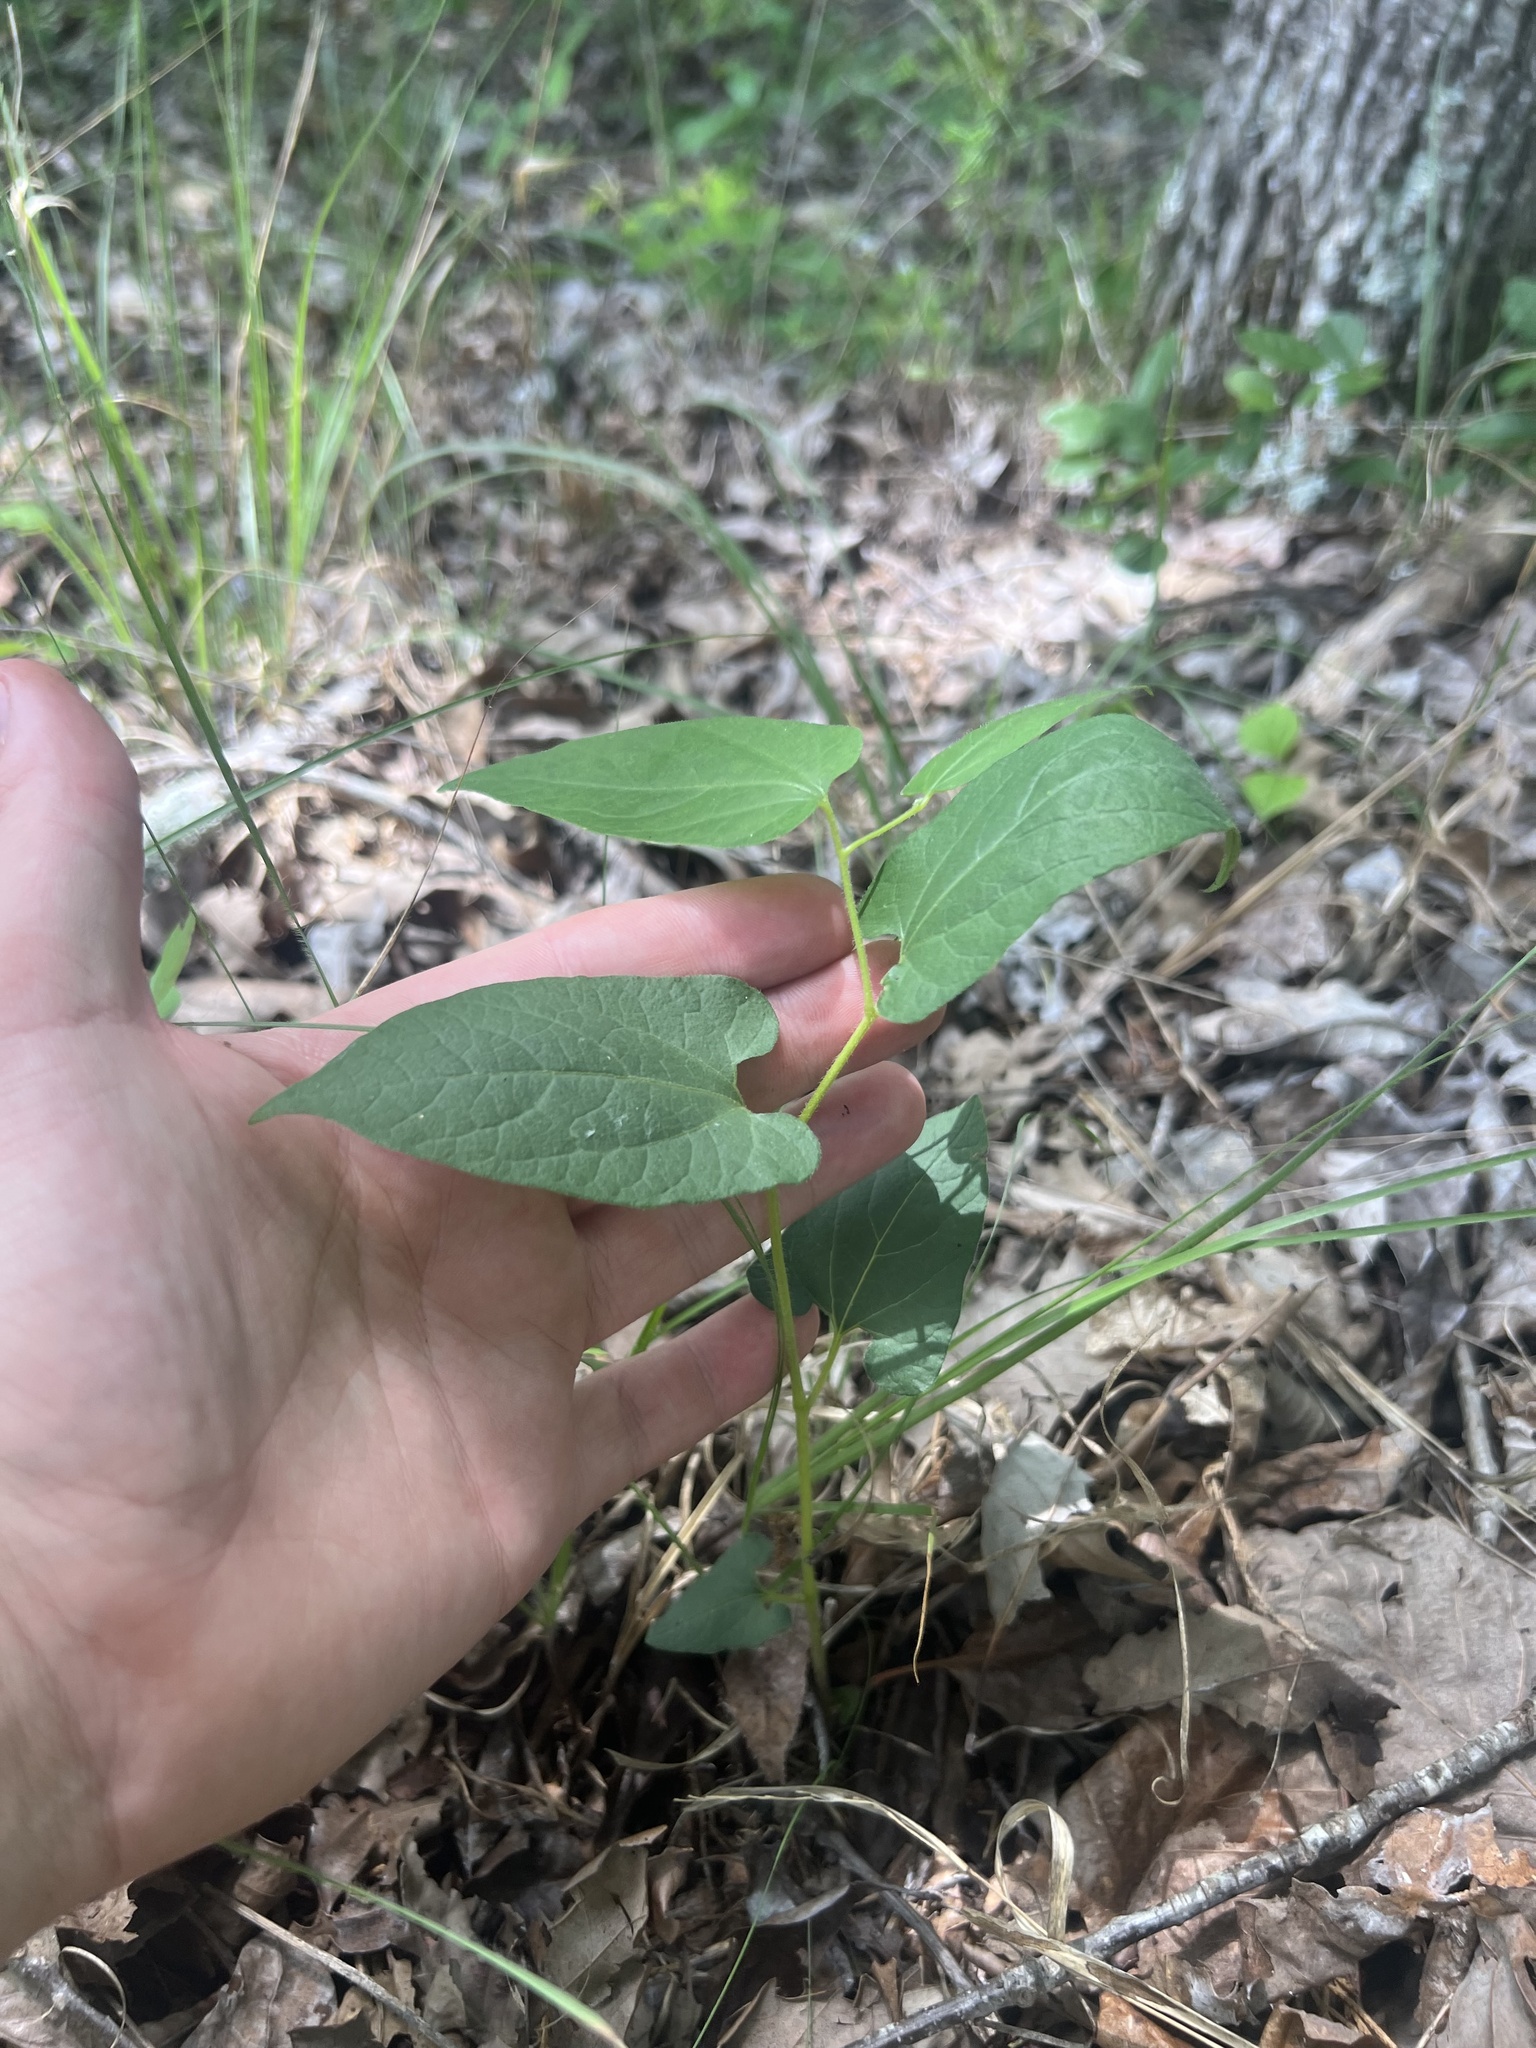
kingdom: Plantae
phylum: Tracheophyta
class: Magnoliopsida
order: Piperales
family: Aristolochiaceae
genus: Endodeca
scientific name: Endodeca serpentaria
